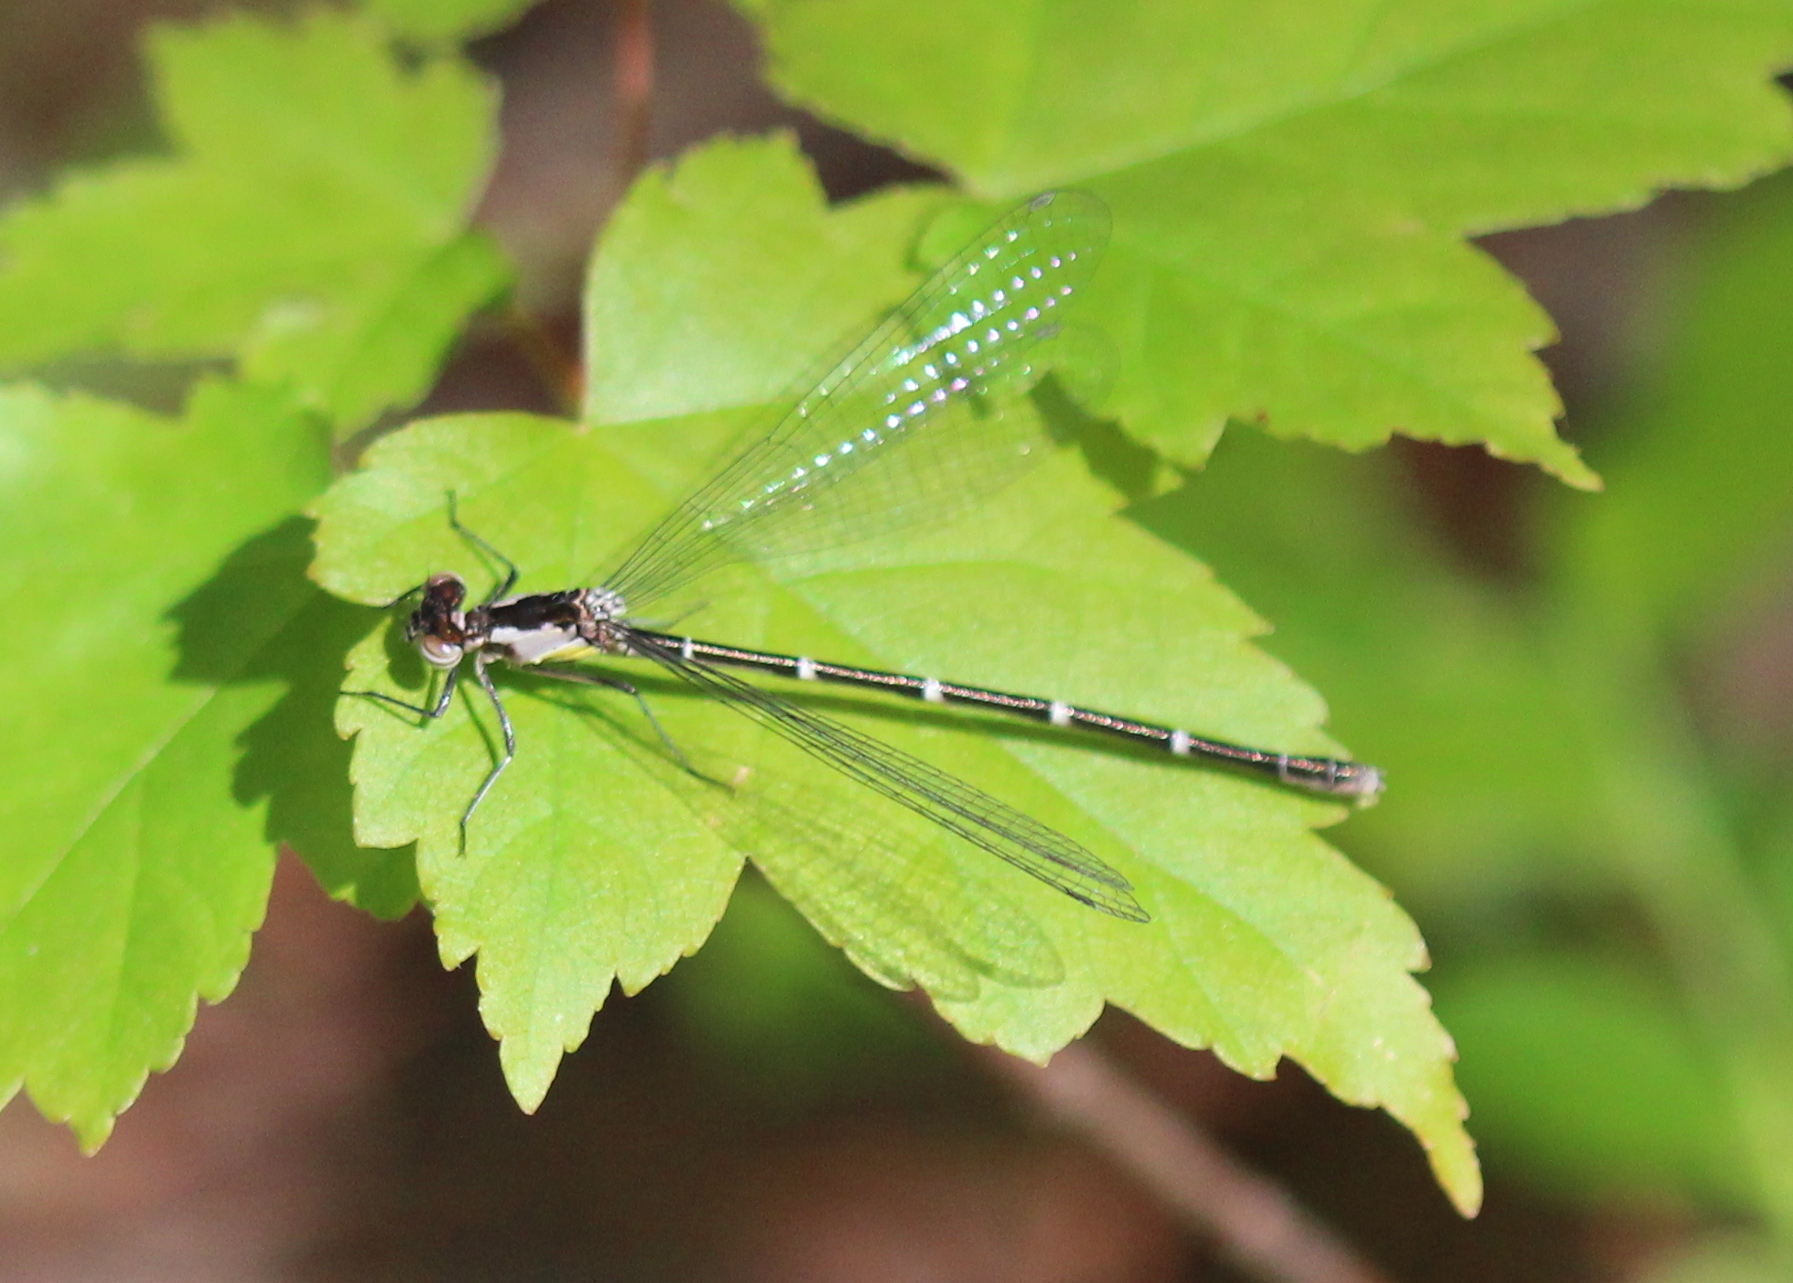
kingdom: Animalia
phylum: Arthropoda
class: Insecta
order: Odonata
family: Coenagrionidae
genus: Chromagrion
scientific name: Chromagrion conditum
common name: Aurora damsel
